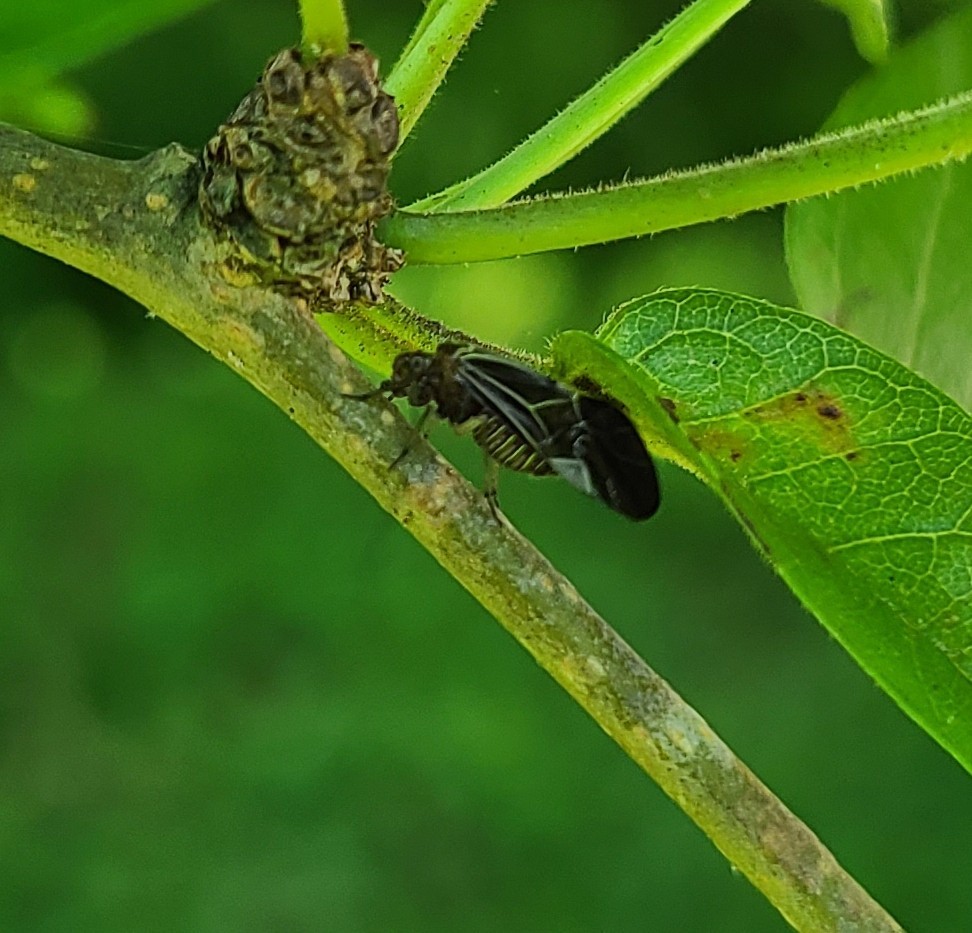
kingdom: Animalia
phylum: Arthropoda
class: Insecta
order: Psocodea
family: Psocidae
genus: Cerastipsocus
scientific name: Cerastipsocus venosus
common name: Tree cattle
